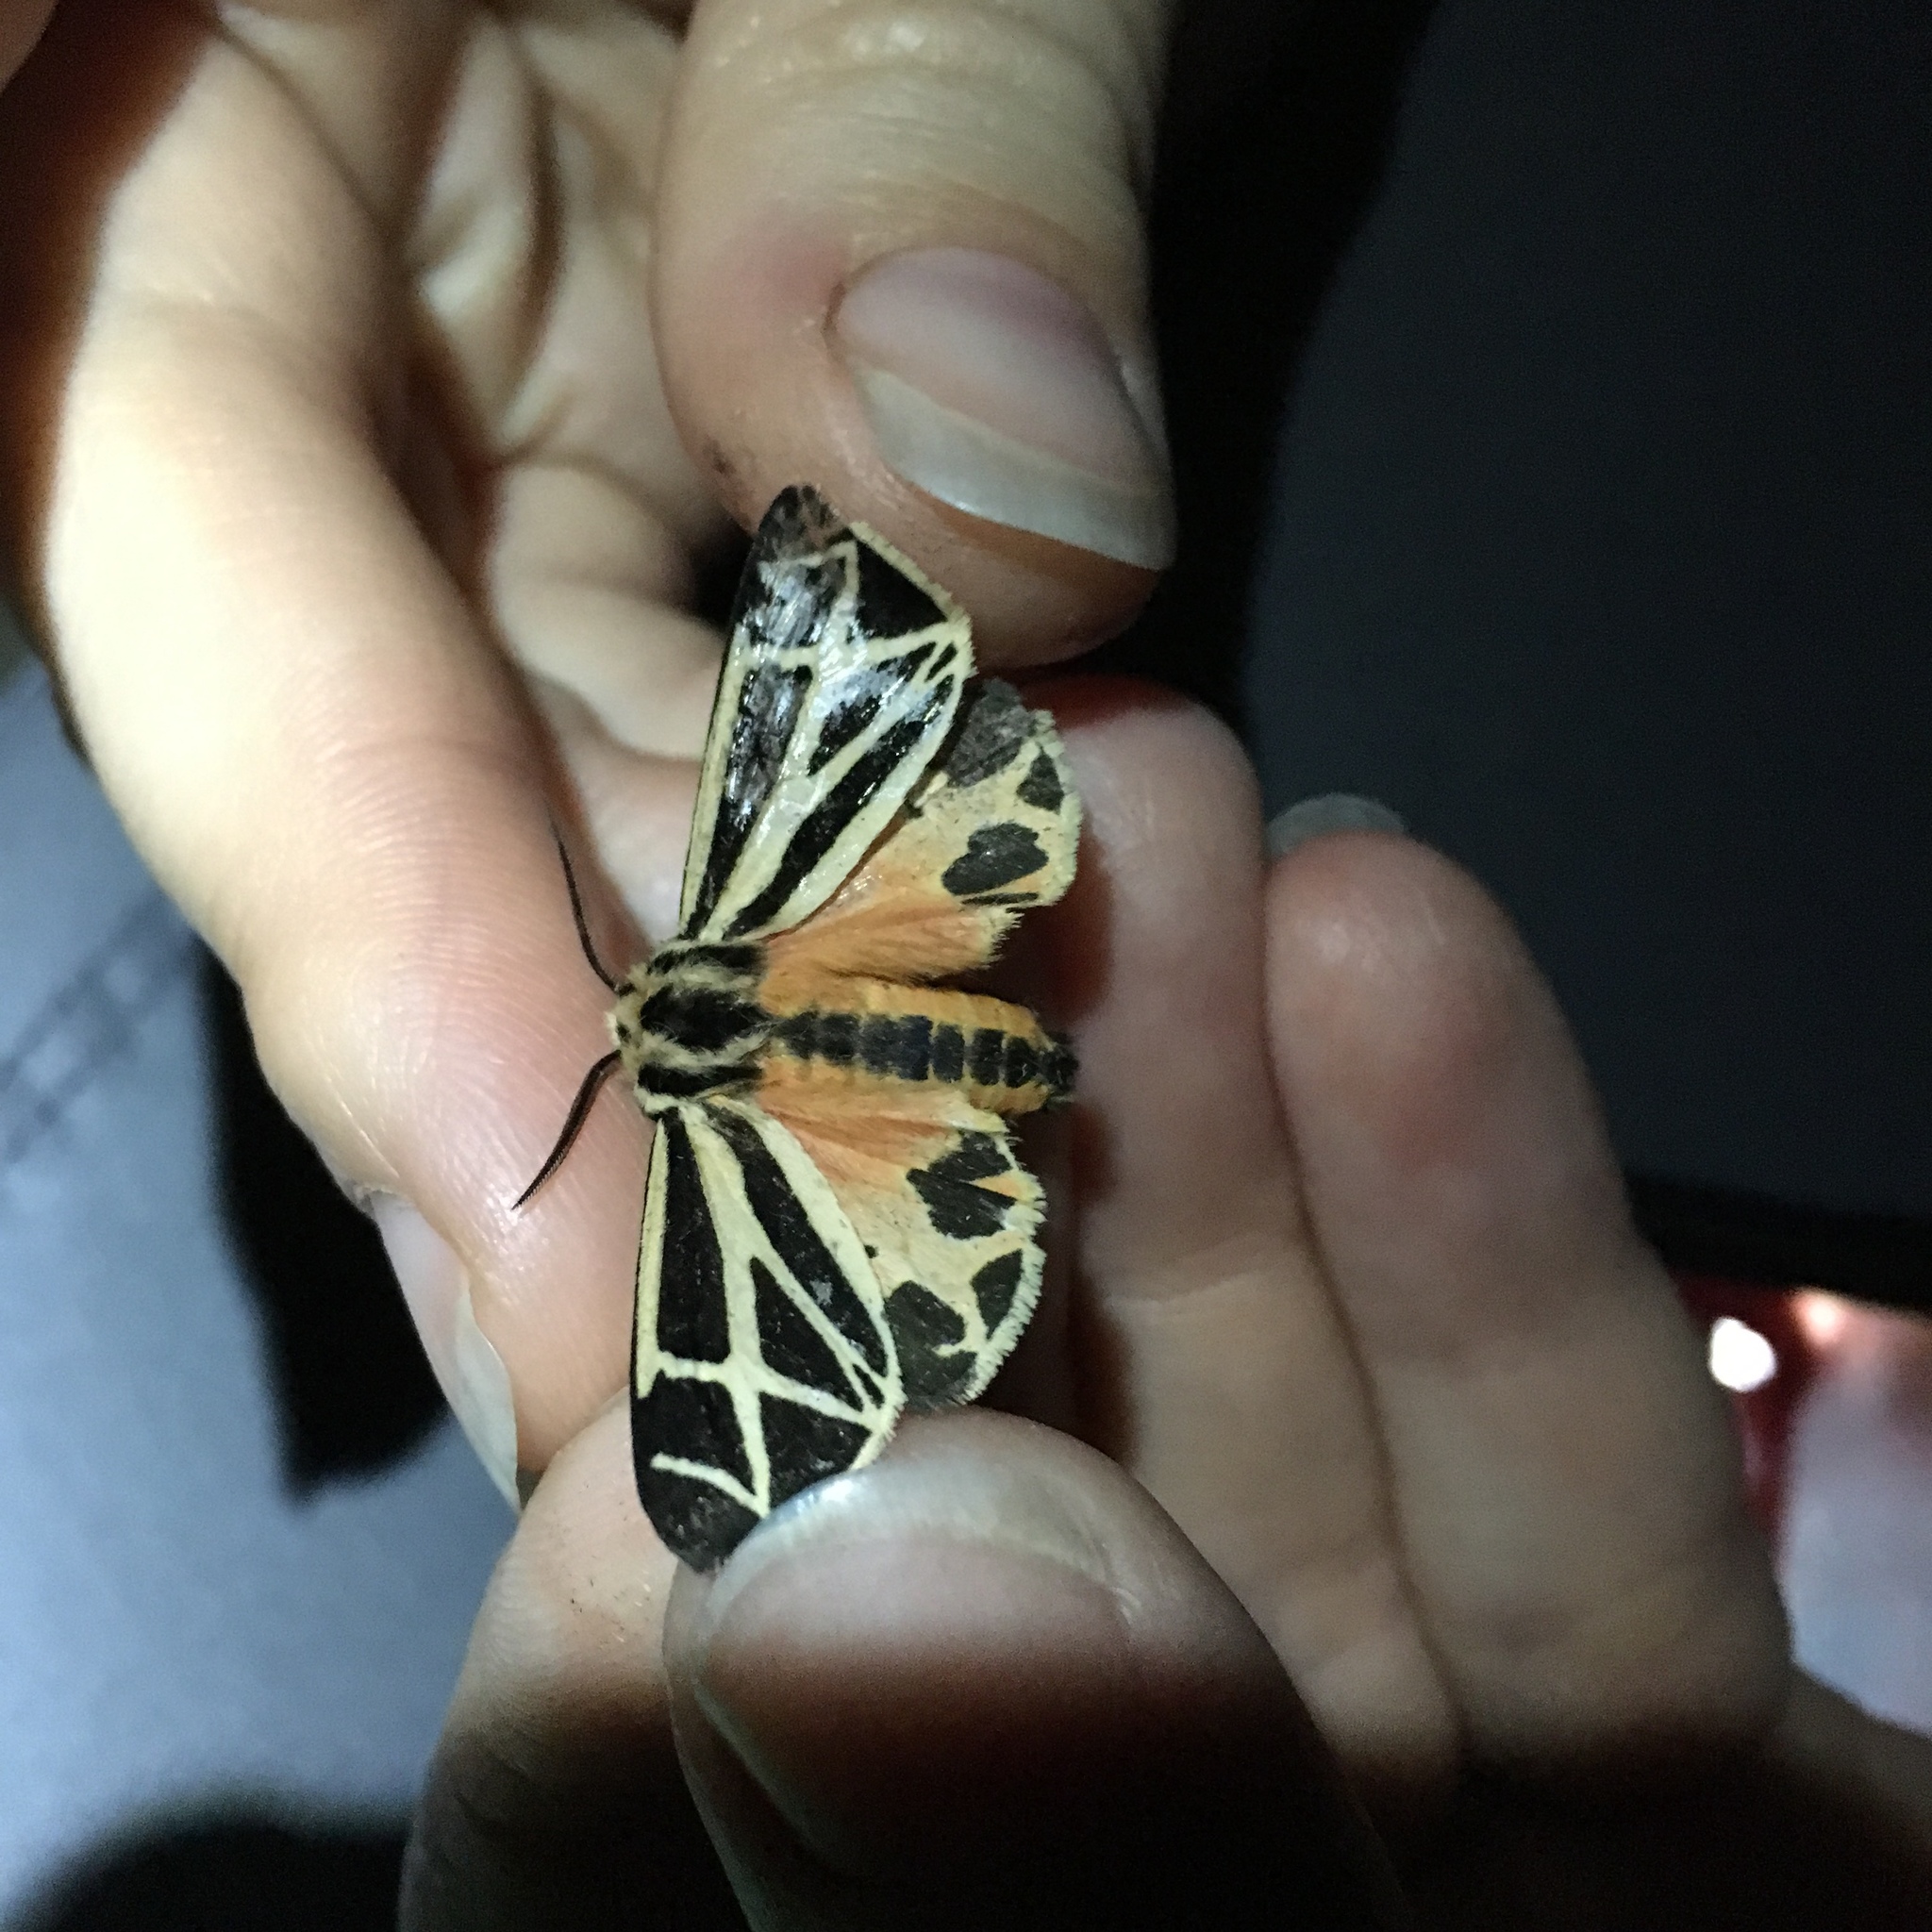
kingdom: Animalia
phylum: Arthropoda
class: Insecta
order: Lepidoptera
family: Erebidae
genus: Apantesis
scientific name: Apantesis phalerata
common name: Harnessed tiger moth
